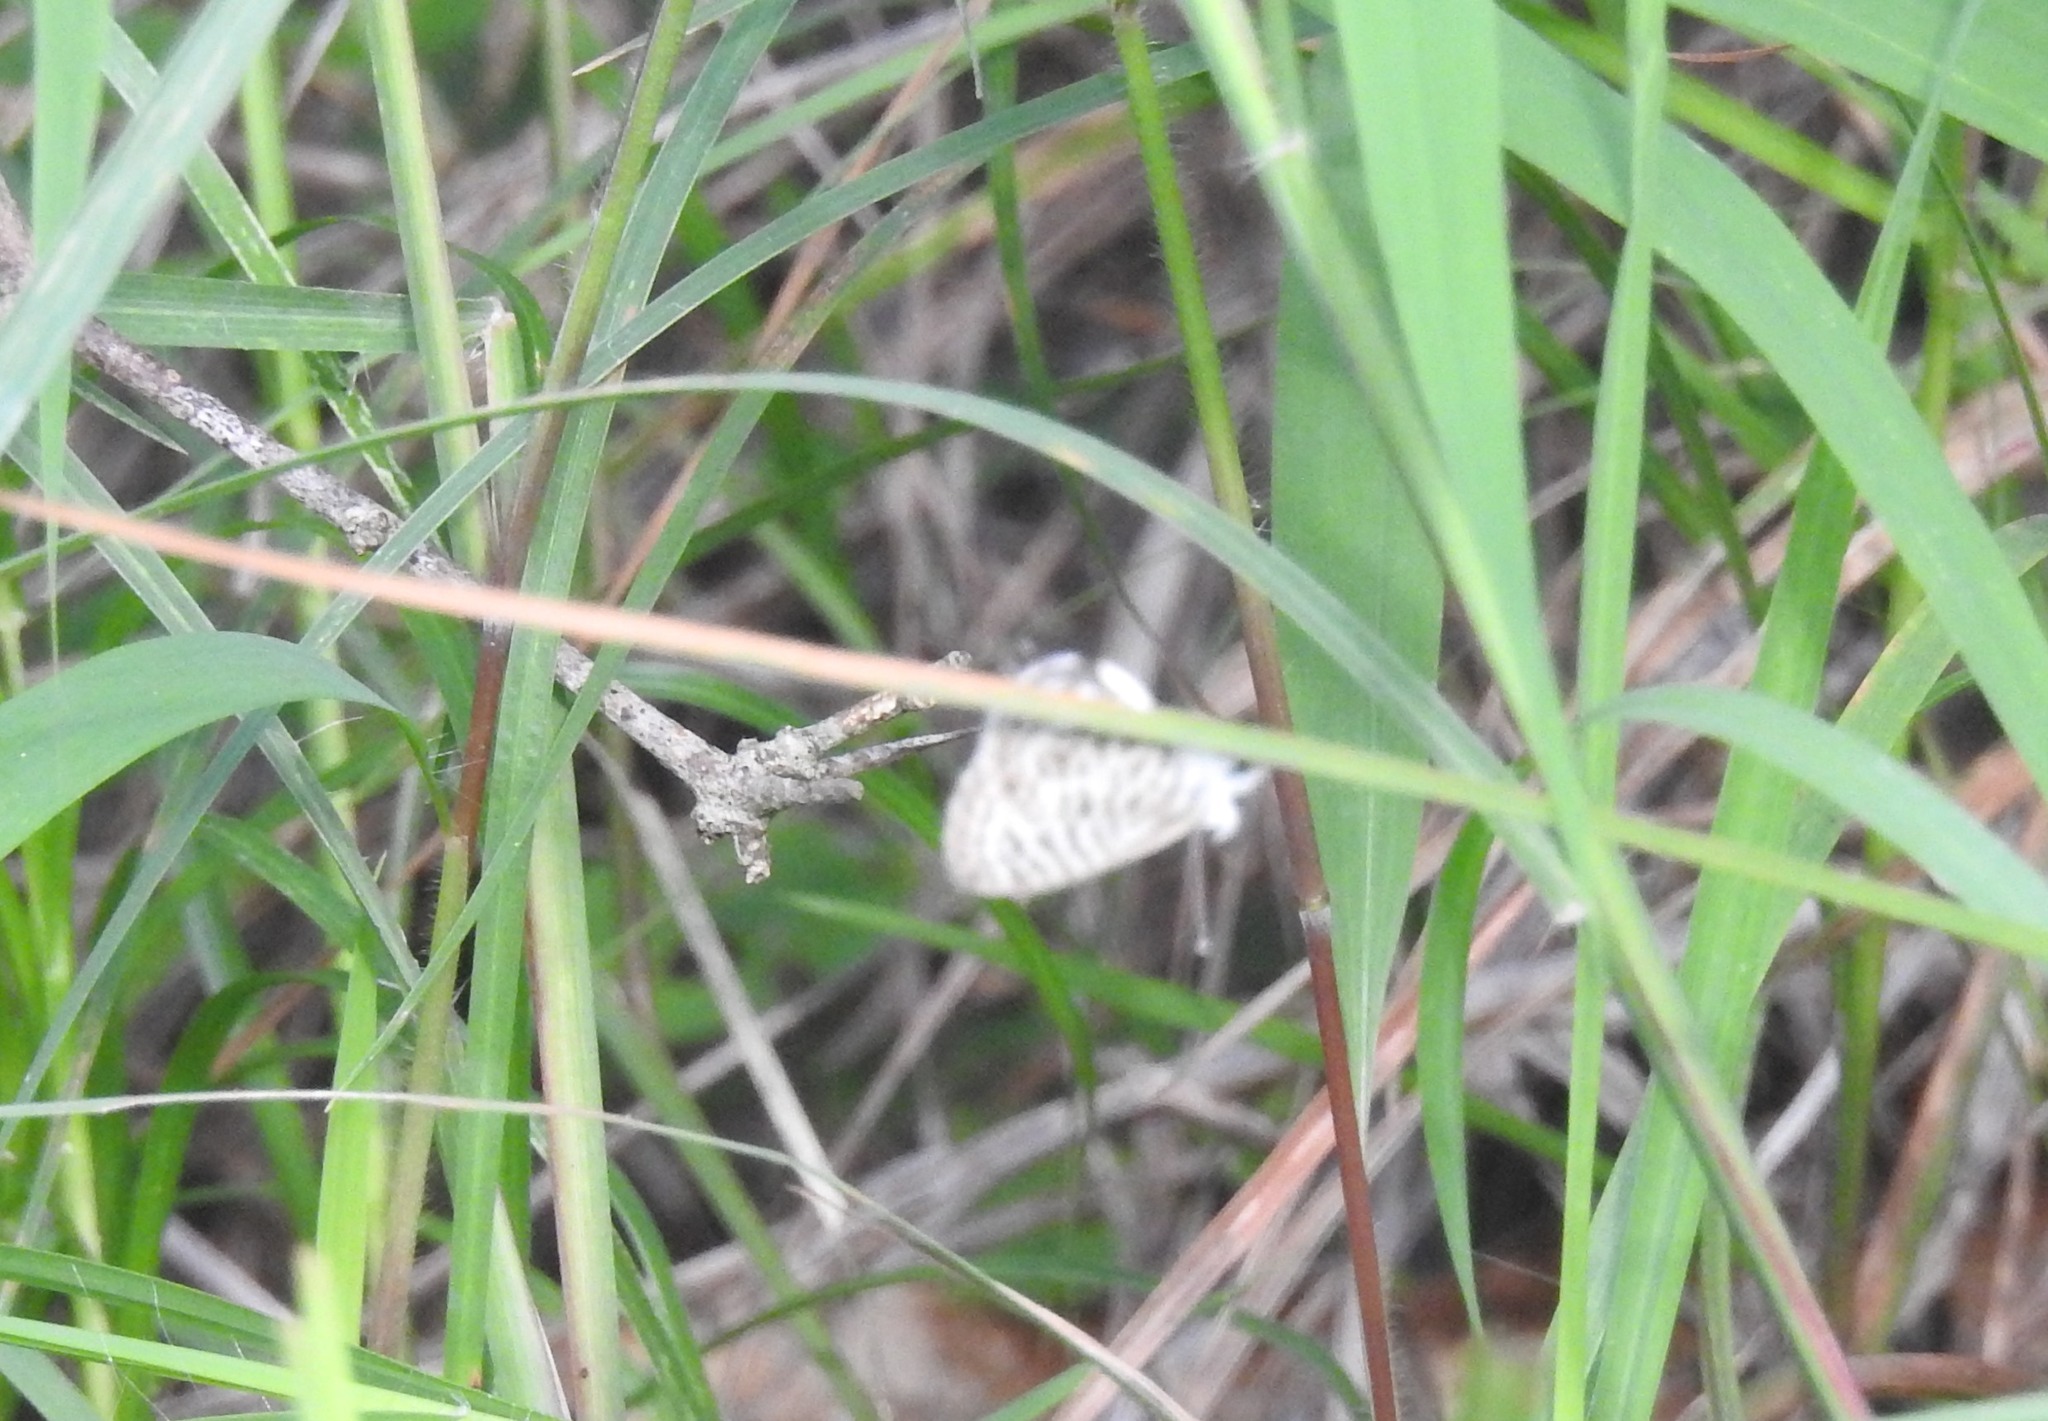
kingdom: Animalia
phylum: Arthropoda
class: Insecta
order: Lepidoptera
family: Lycaenidae
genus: Leptotes
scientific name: Leptotes plinius
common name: Zebra blue
